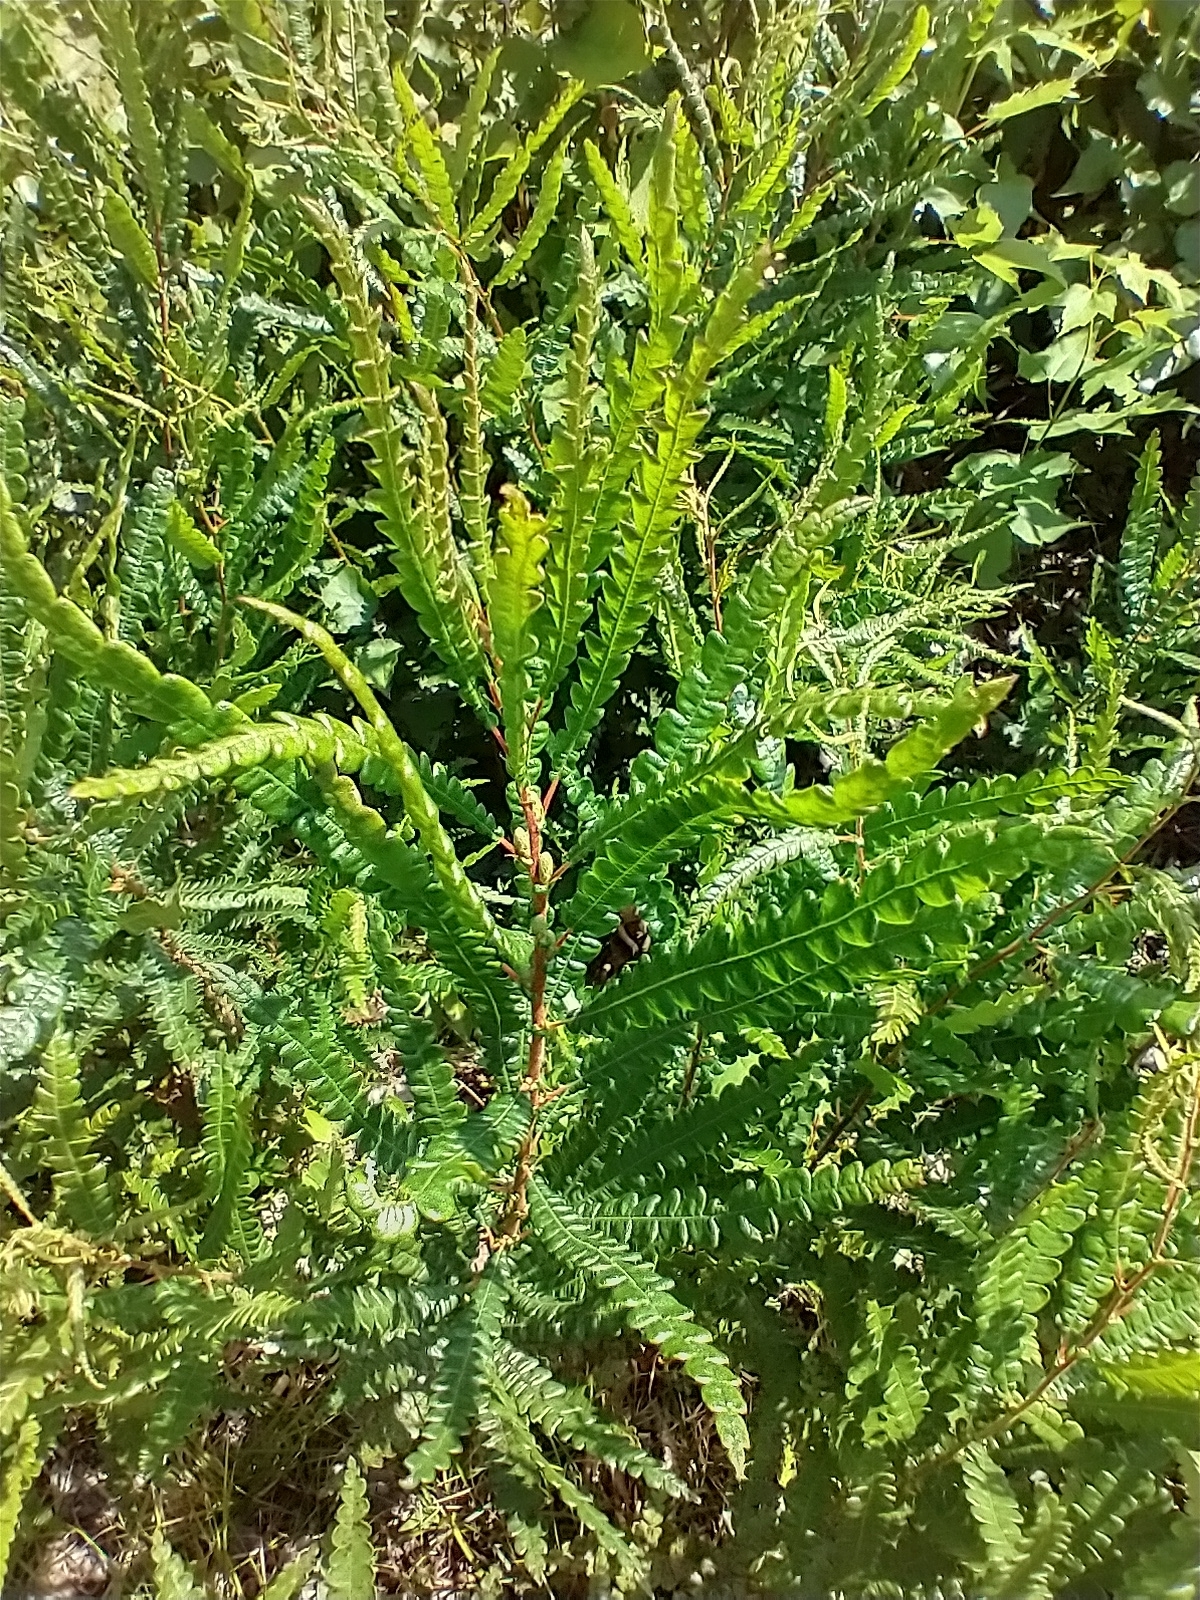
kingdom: Plantae
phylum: Tracheophyta
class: Magnoliopsida
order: Fagales
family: Myricaceae
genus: Comptonia
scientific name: Comptonia peregrina
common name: Sweet-fern
